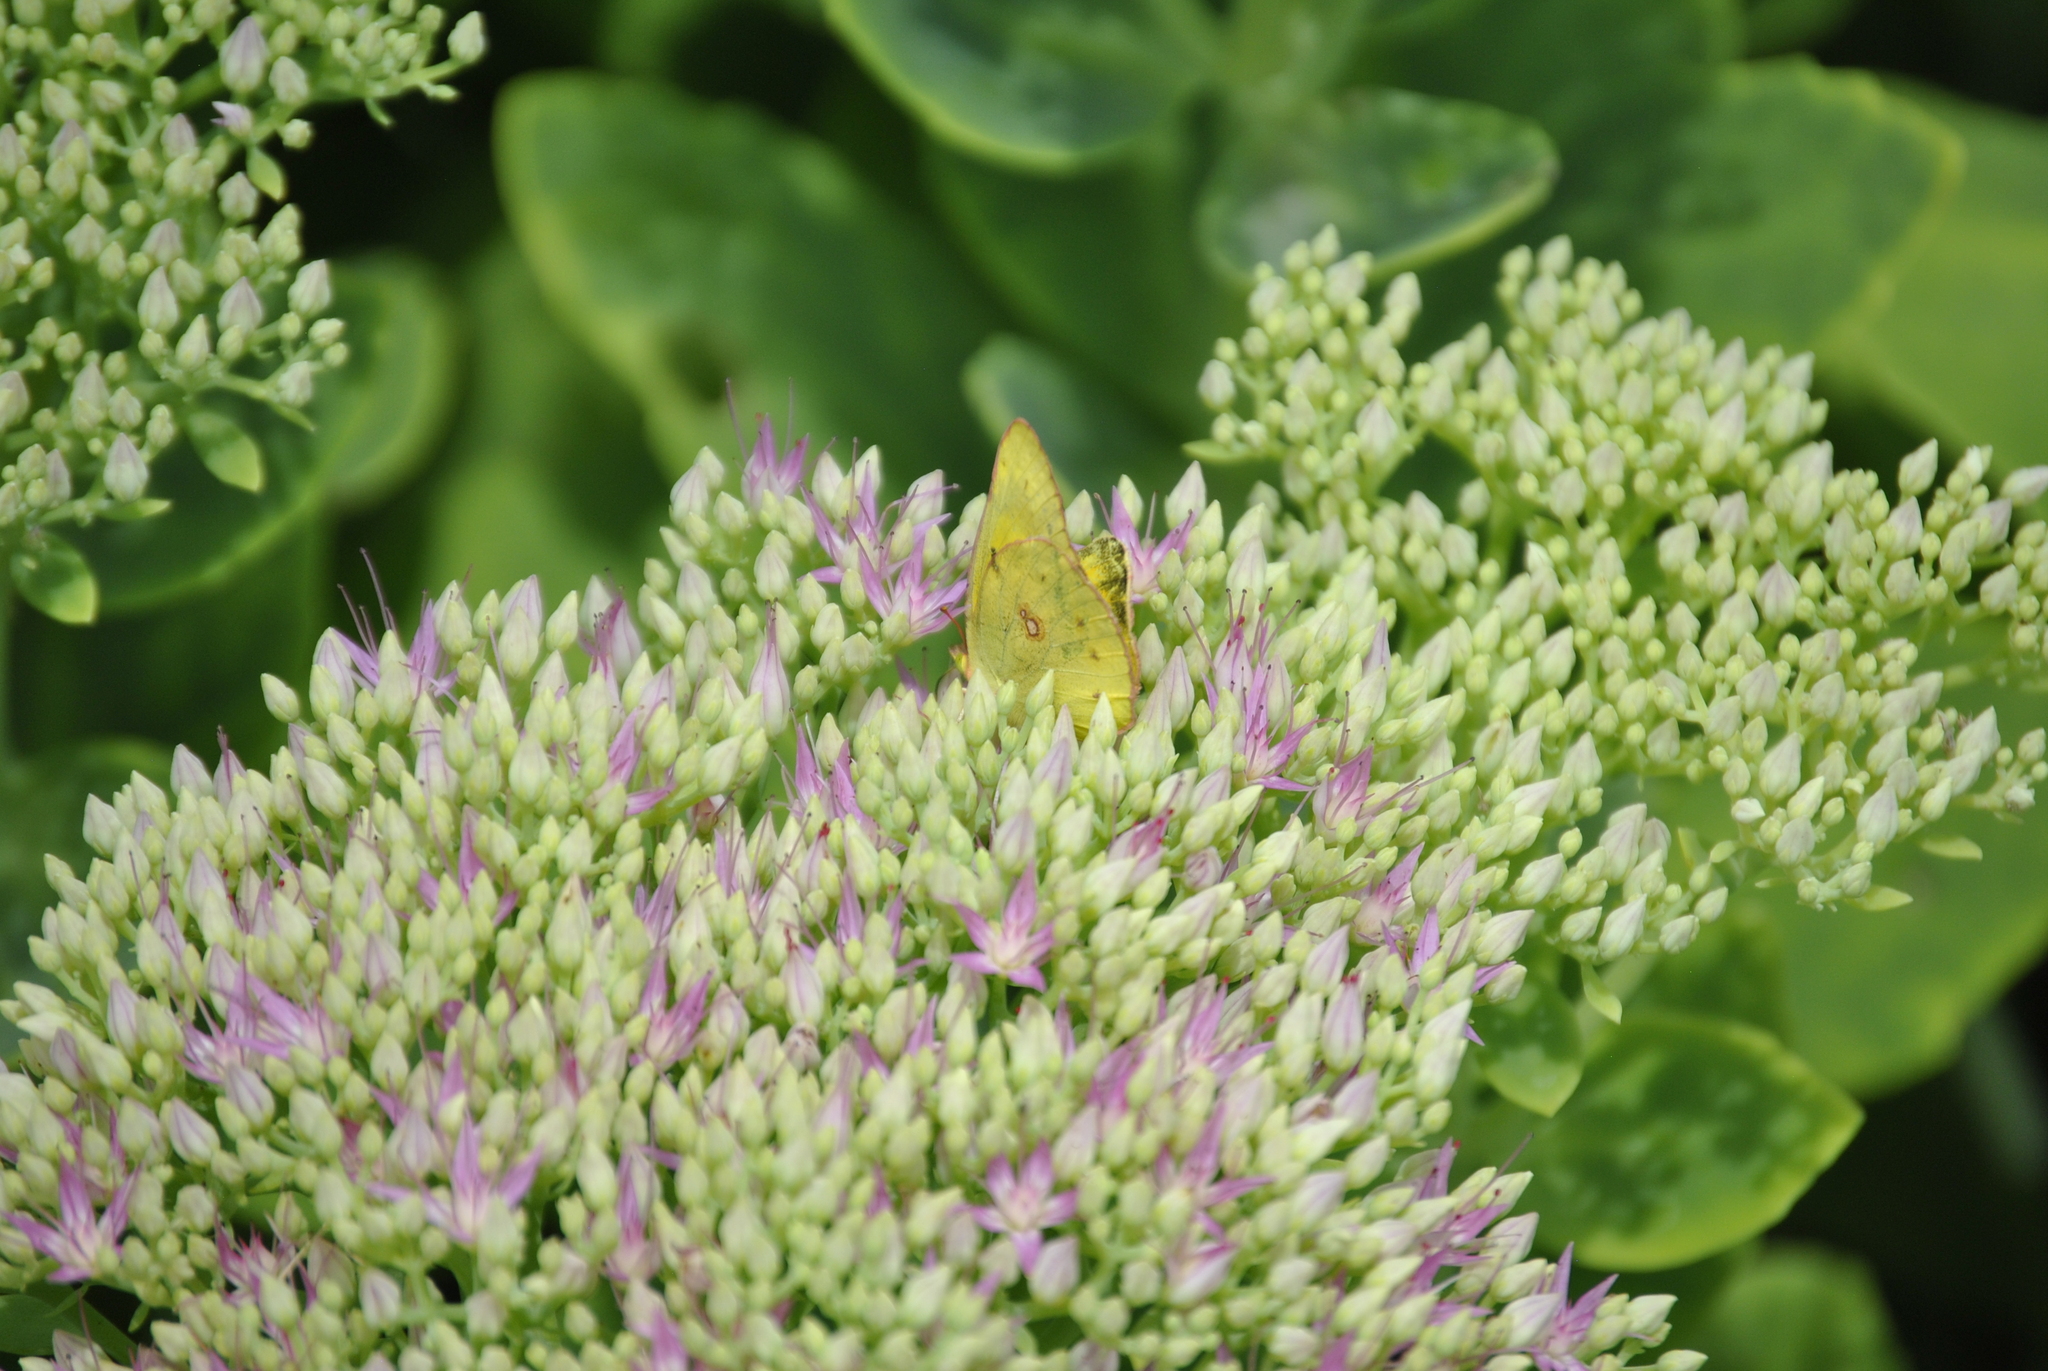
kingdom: Animalia
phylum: Arthropoda
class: Insecta
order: Lepidoptera
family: Pieridae
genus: Colias
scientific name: Colias eurytheme
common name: Alfalfa butterfly
